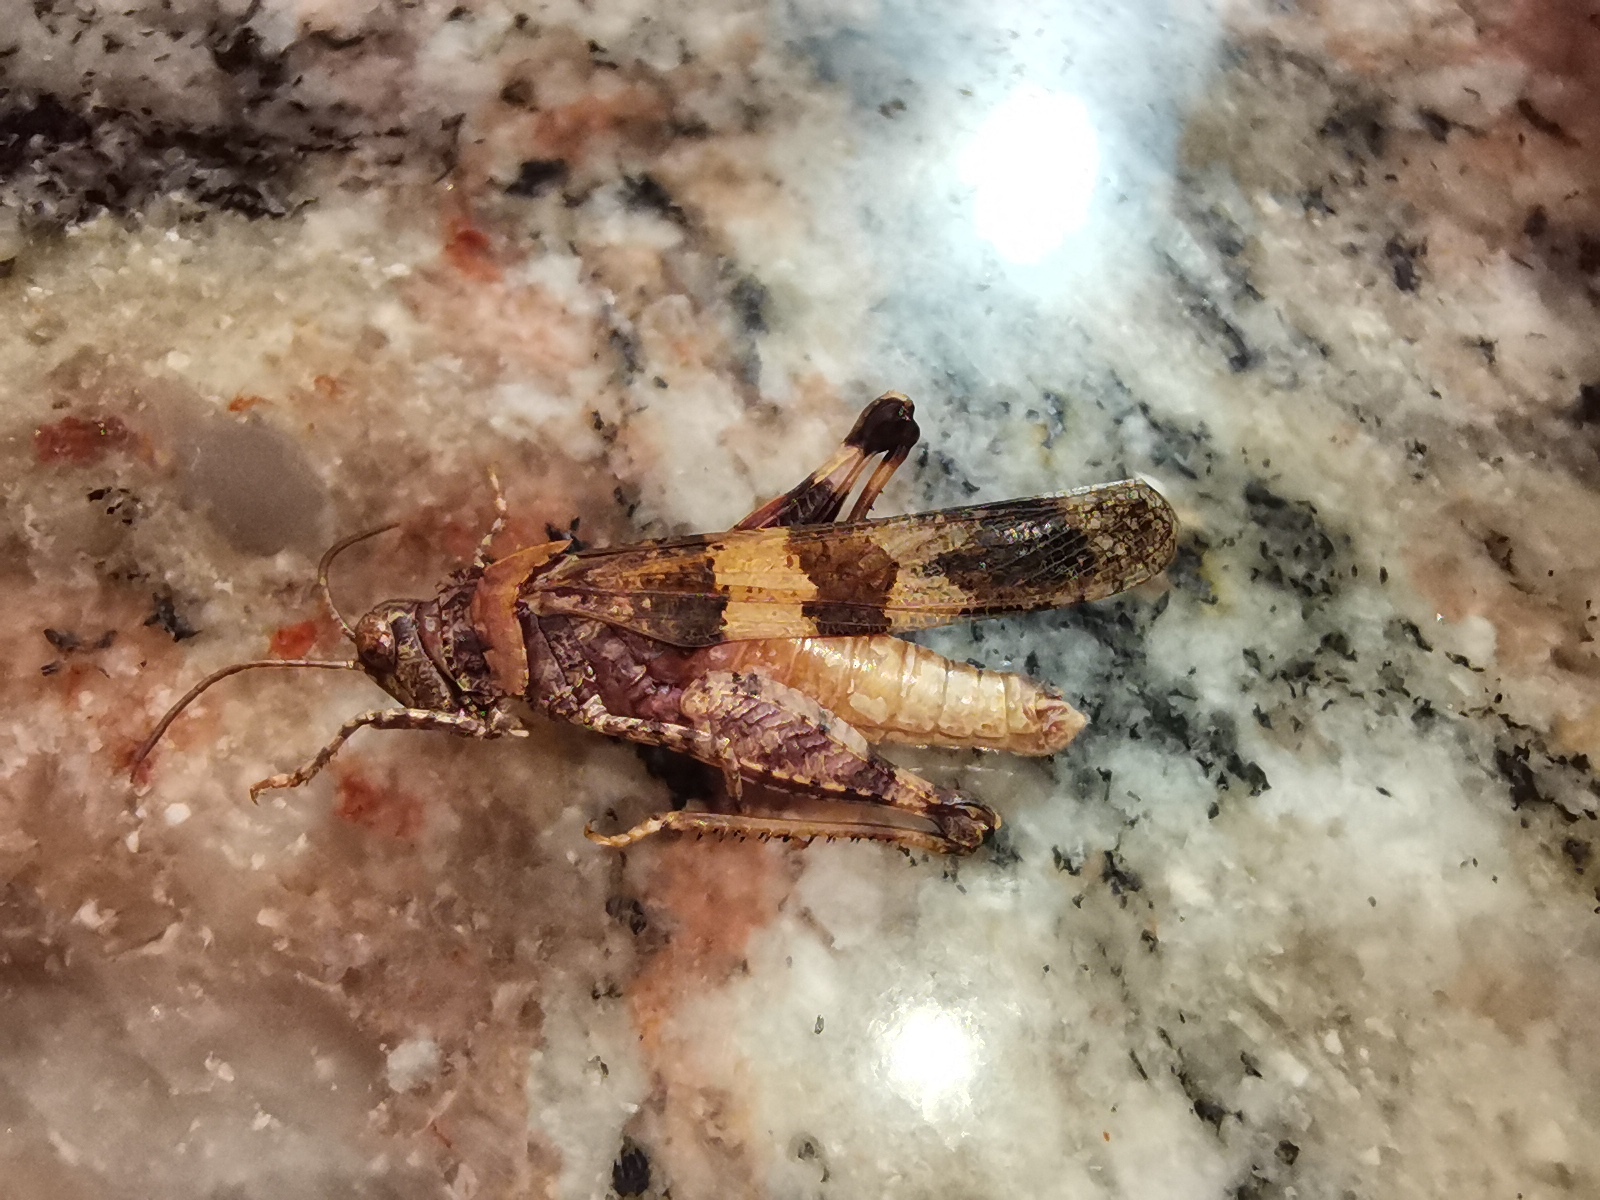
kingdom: Animalia
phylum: Arthropoda
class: Insecta
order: Orthoptera
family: Acrididae
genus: Oedipoda
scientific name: Oedipoda caerulescens
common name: Blue-winged grasshopper
